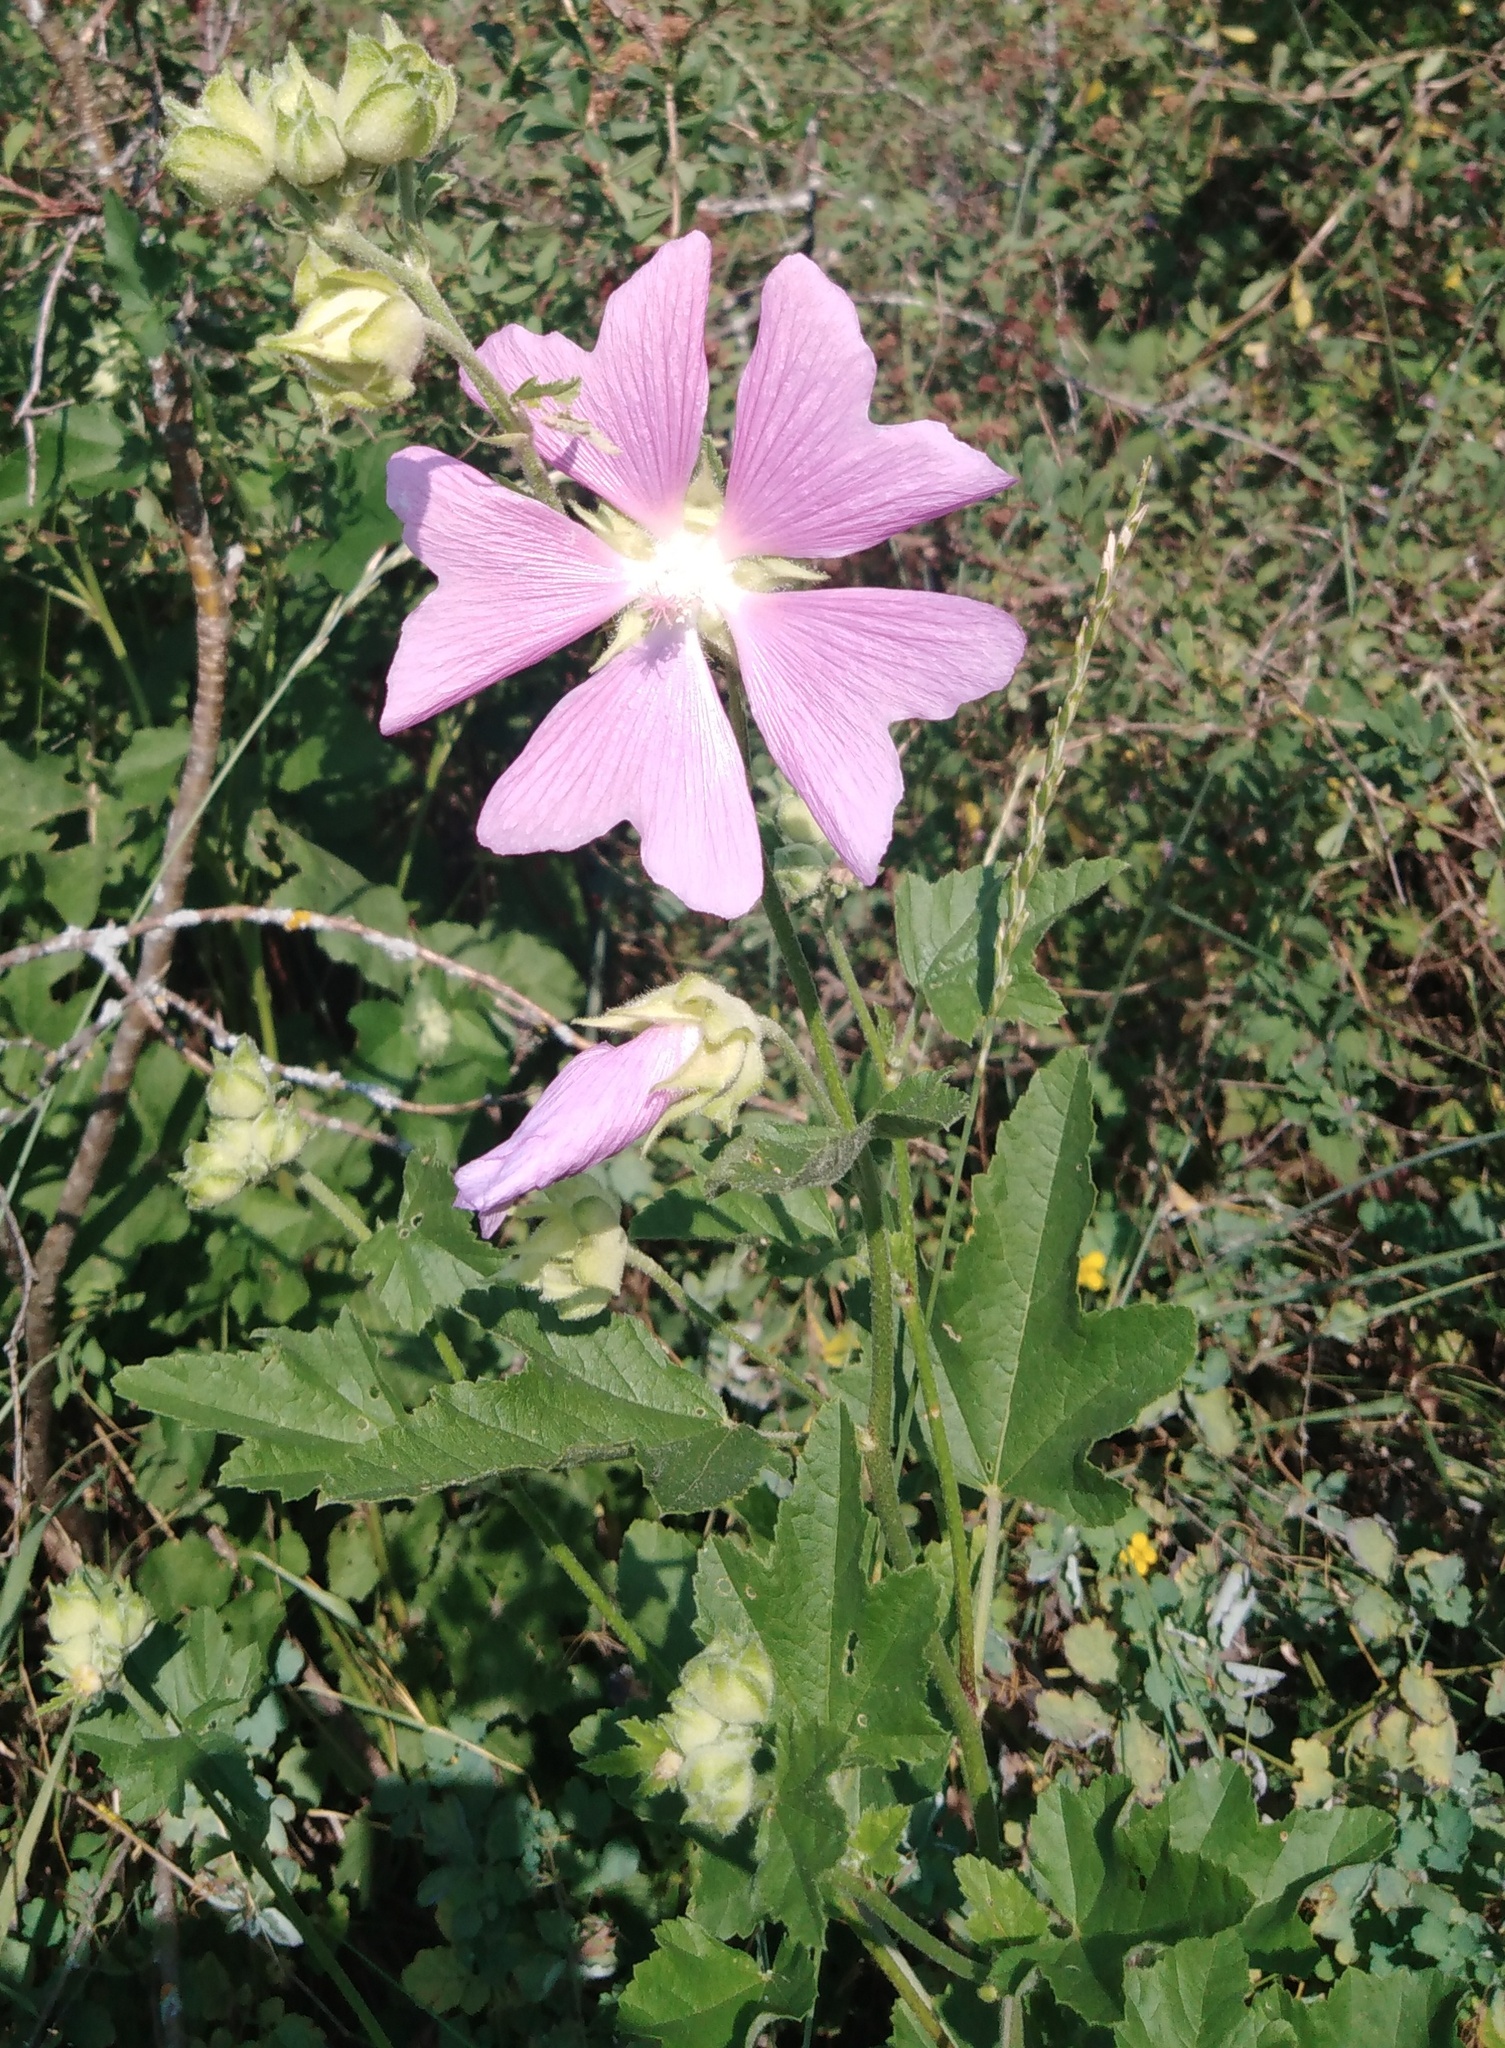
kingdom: Plantae
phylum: Tracheophyta
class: Magnoliopsida
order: Malvales
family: Malvaceae
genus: Malva
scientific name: Malva thuringiaca
